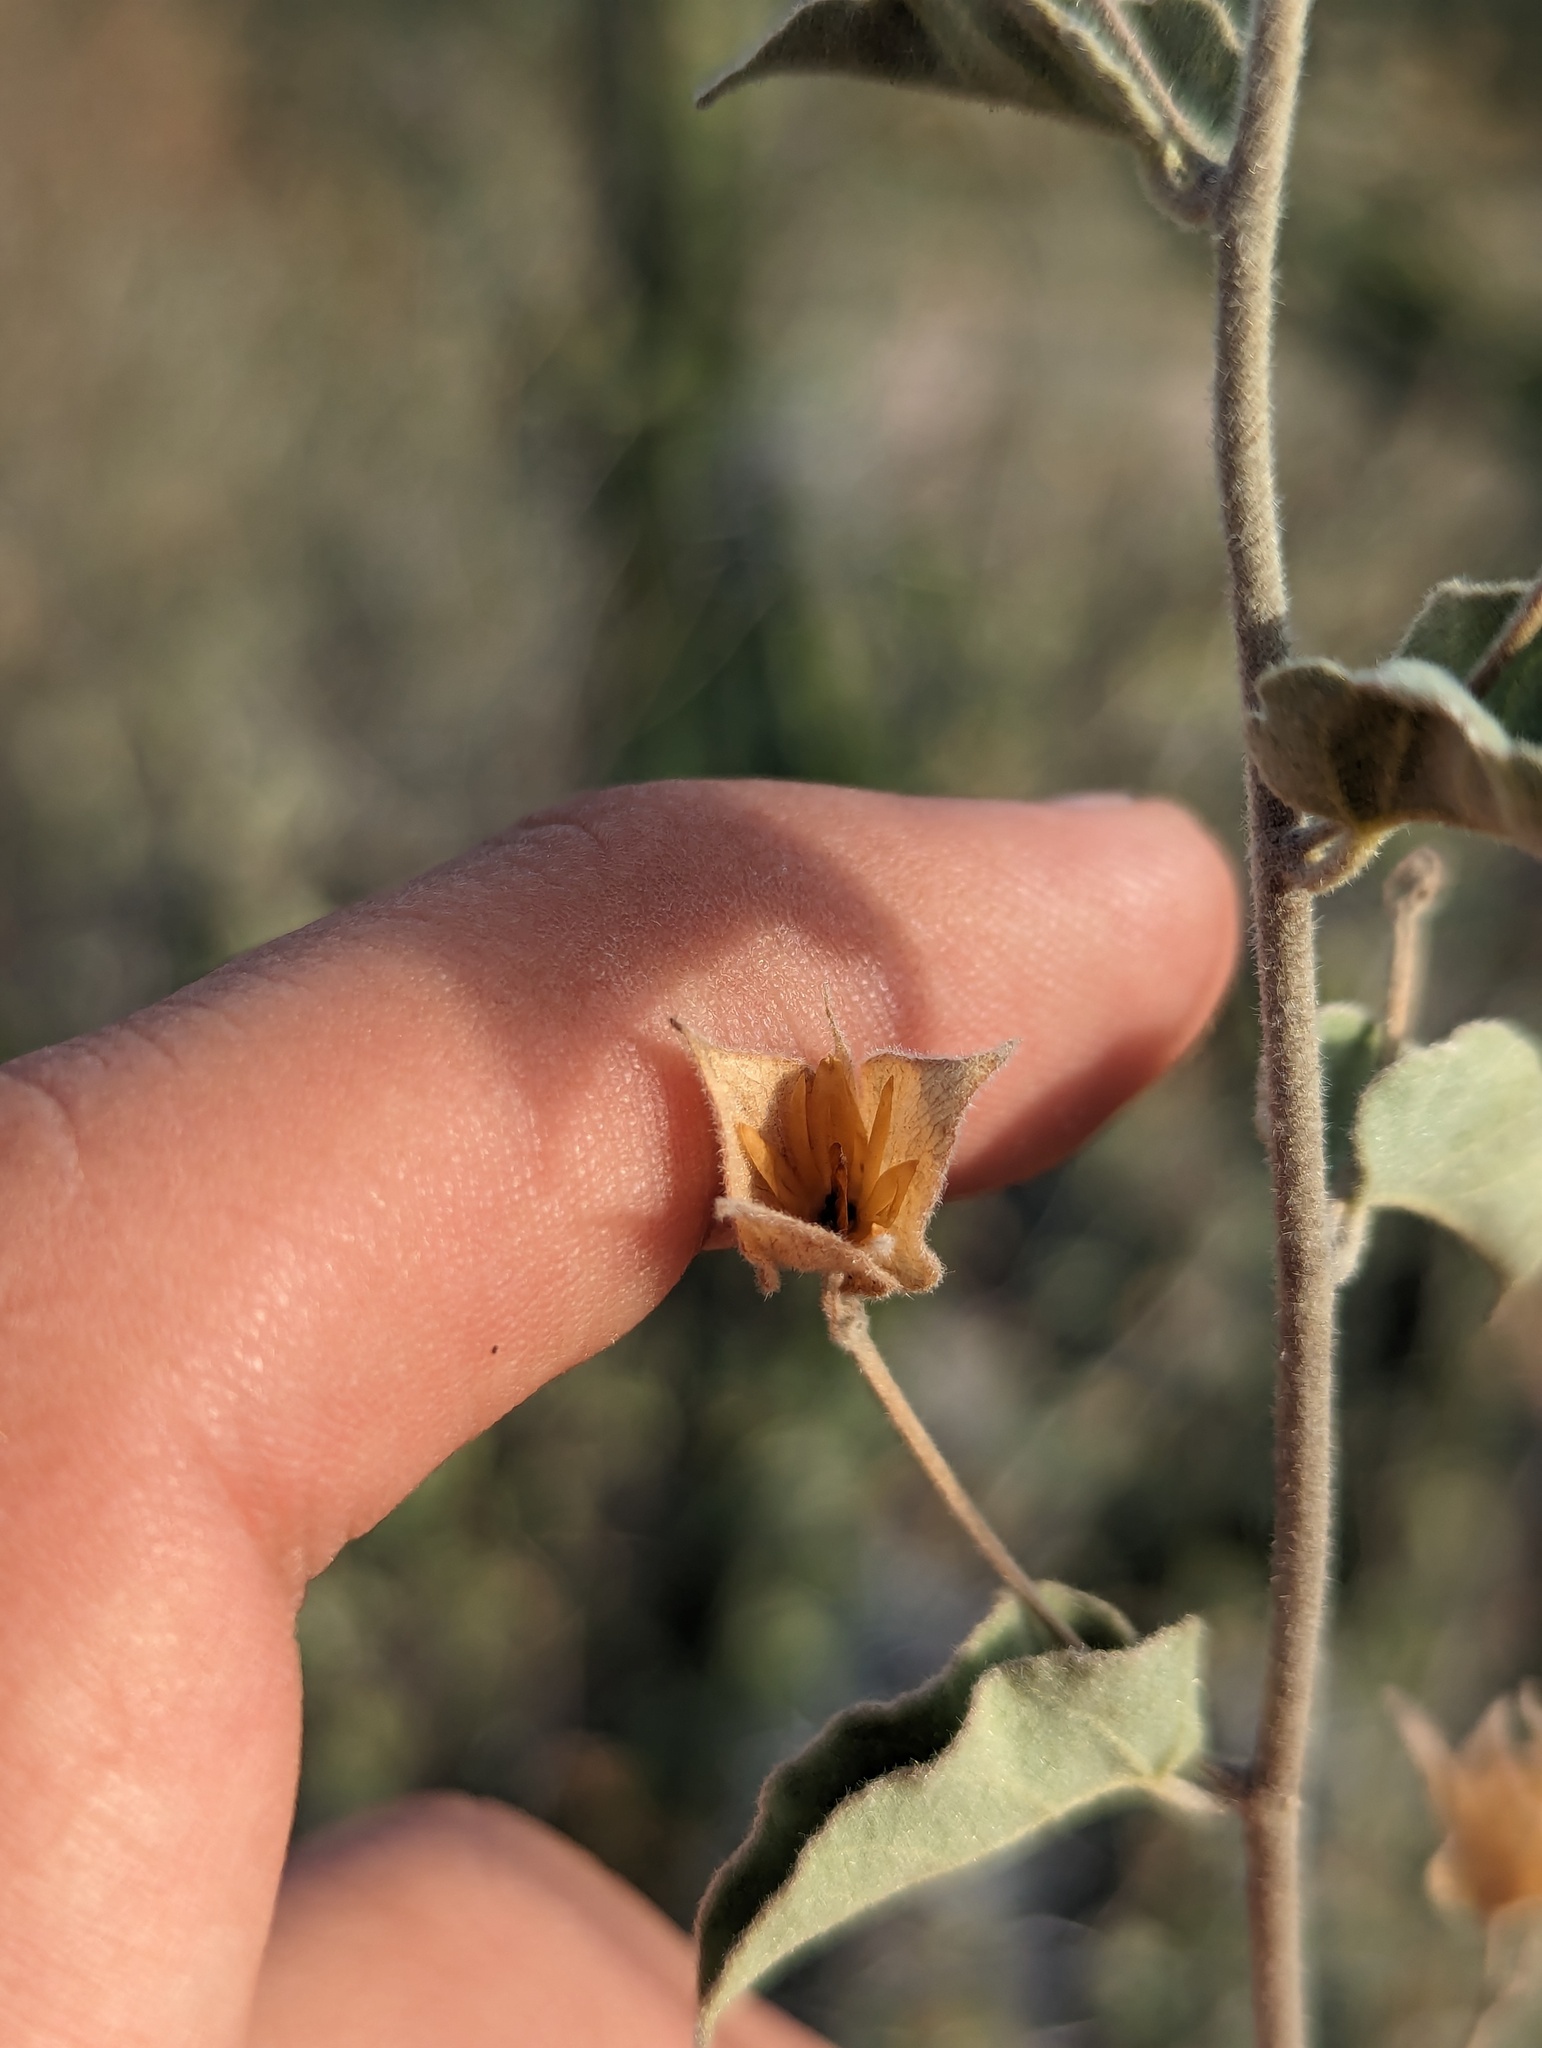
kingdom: Plantae
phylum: Tracheophyta
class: Magnoliopsida
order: Solanales
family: Convolvulaceae
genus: Jacquemontia
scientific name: Jacquemontia abutiloides
